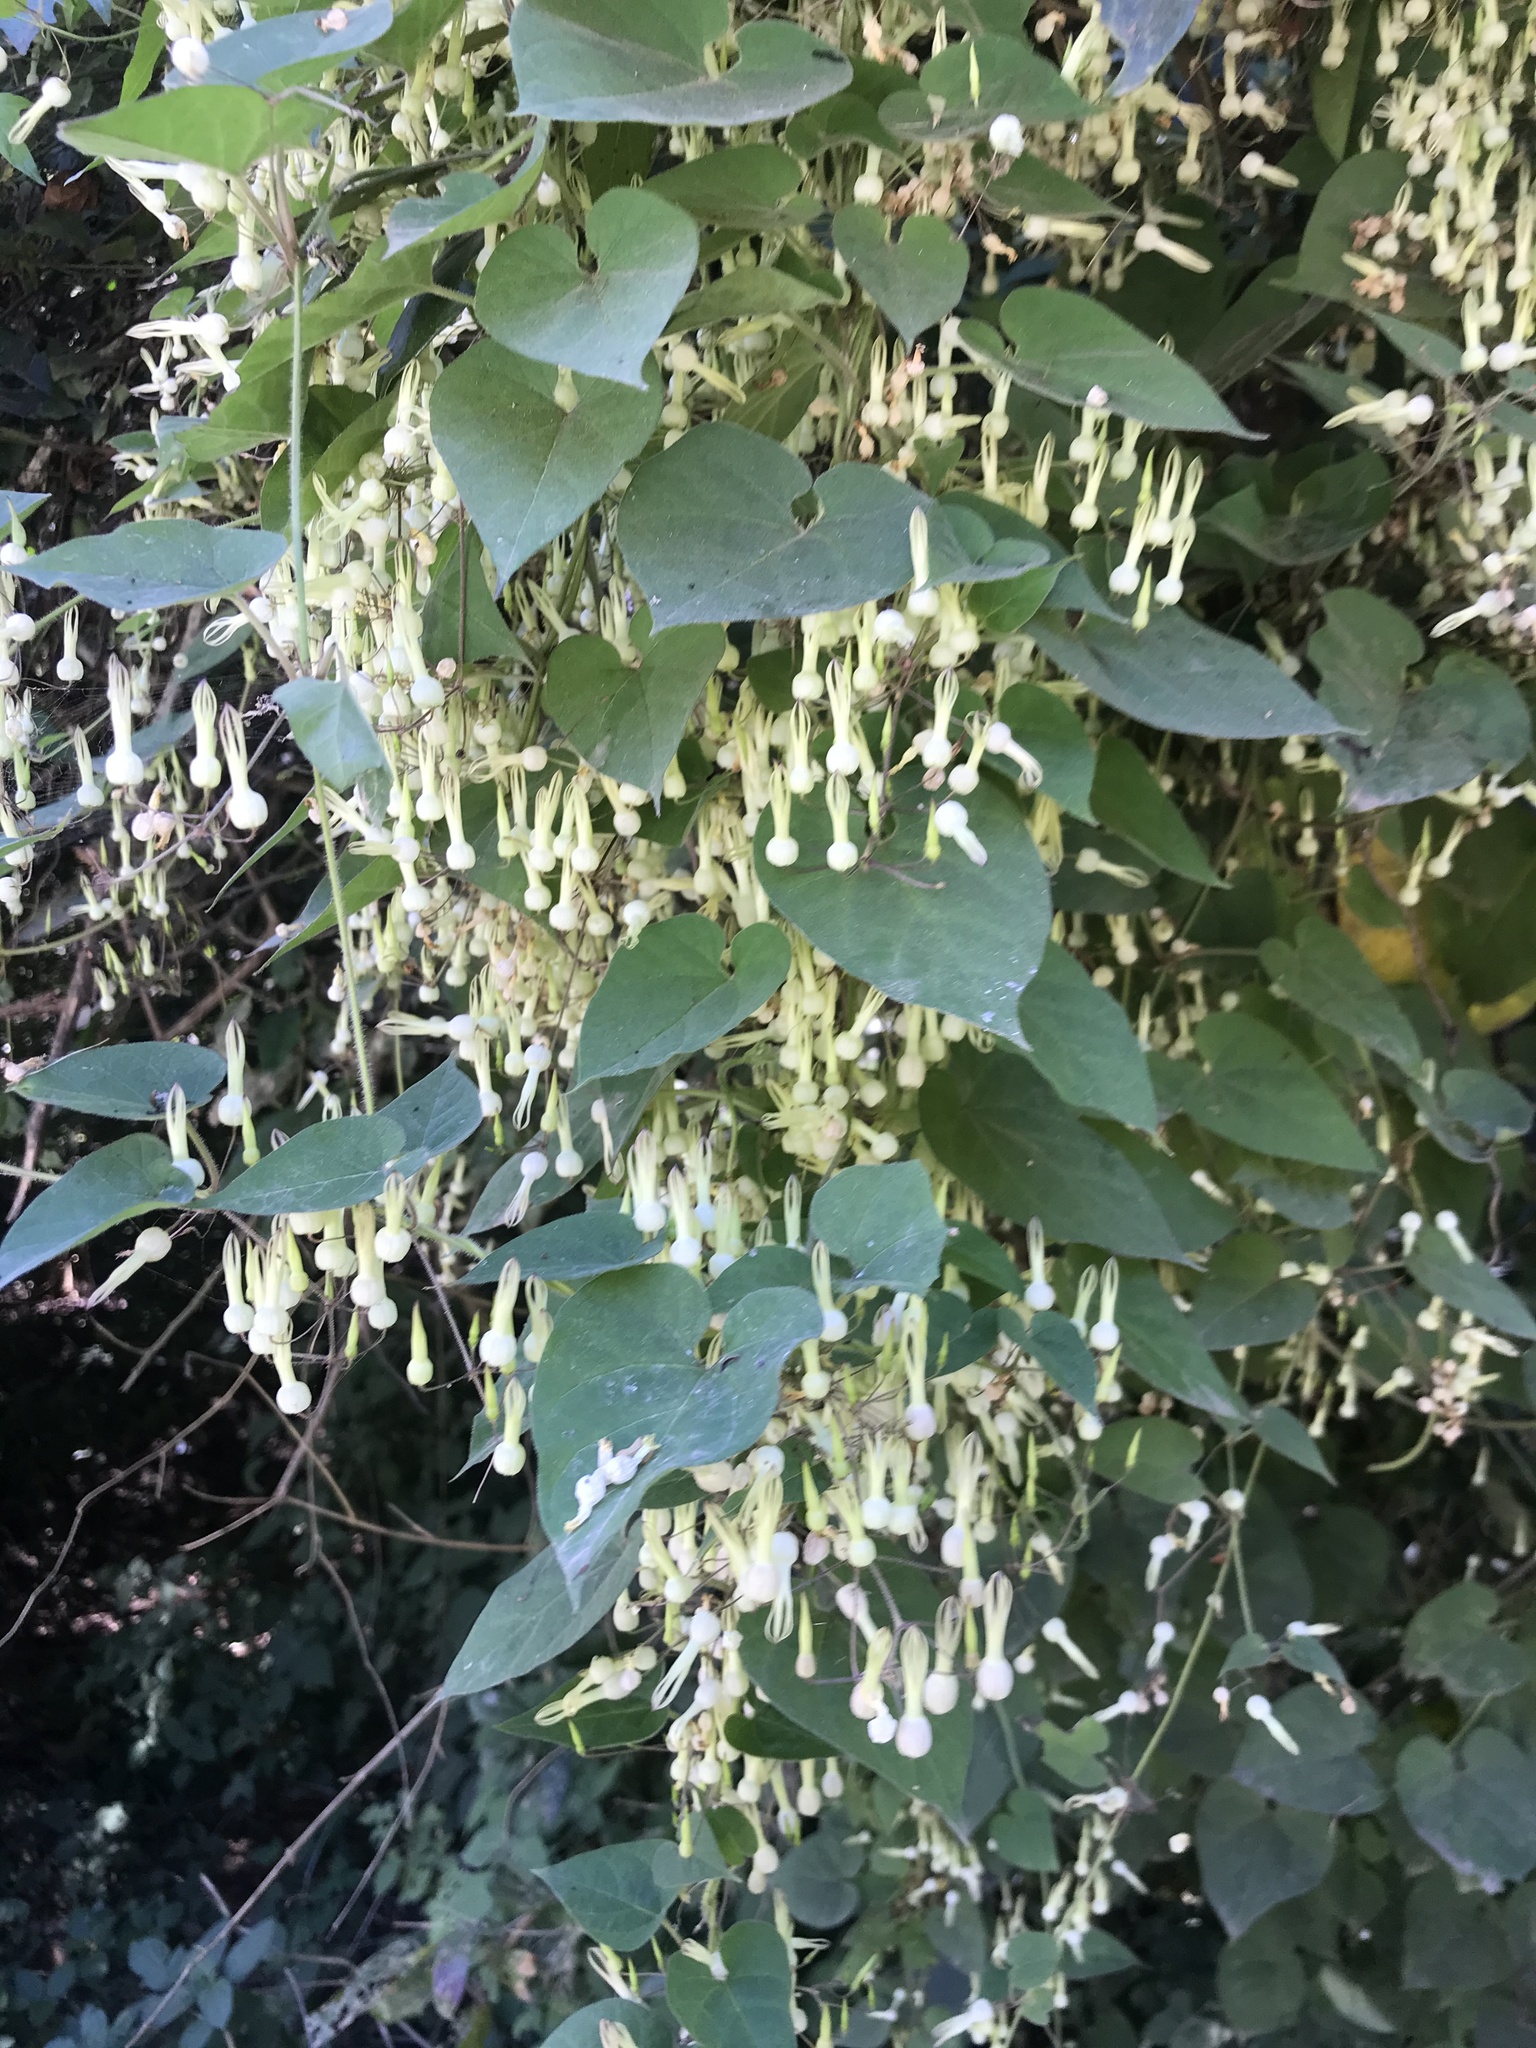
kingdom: Plantae
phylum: Tracheophyta
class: Magnoliopsida
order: Gentianales
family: Apocynaceae
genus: Riocreuxia
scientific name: Riocreuxia torulosa
